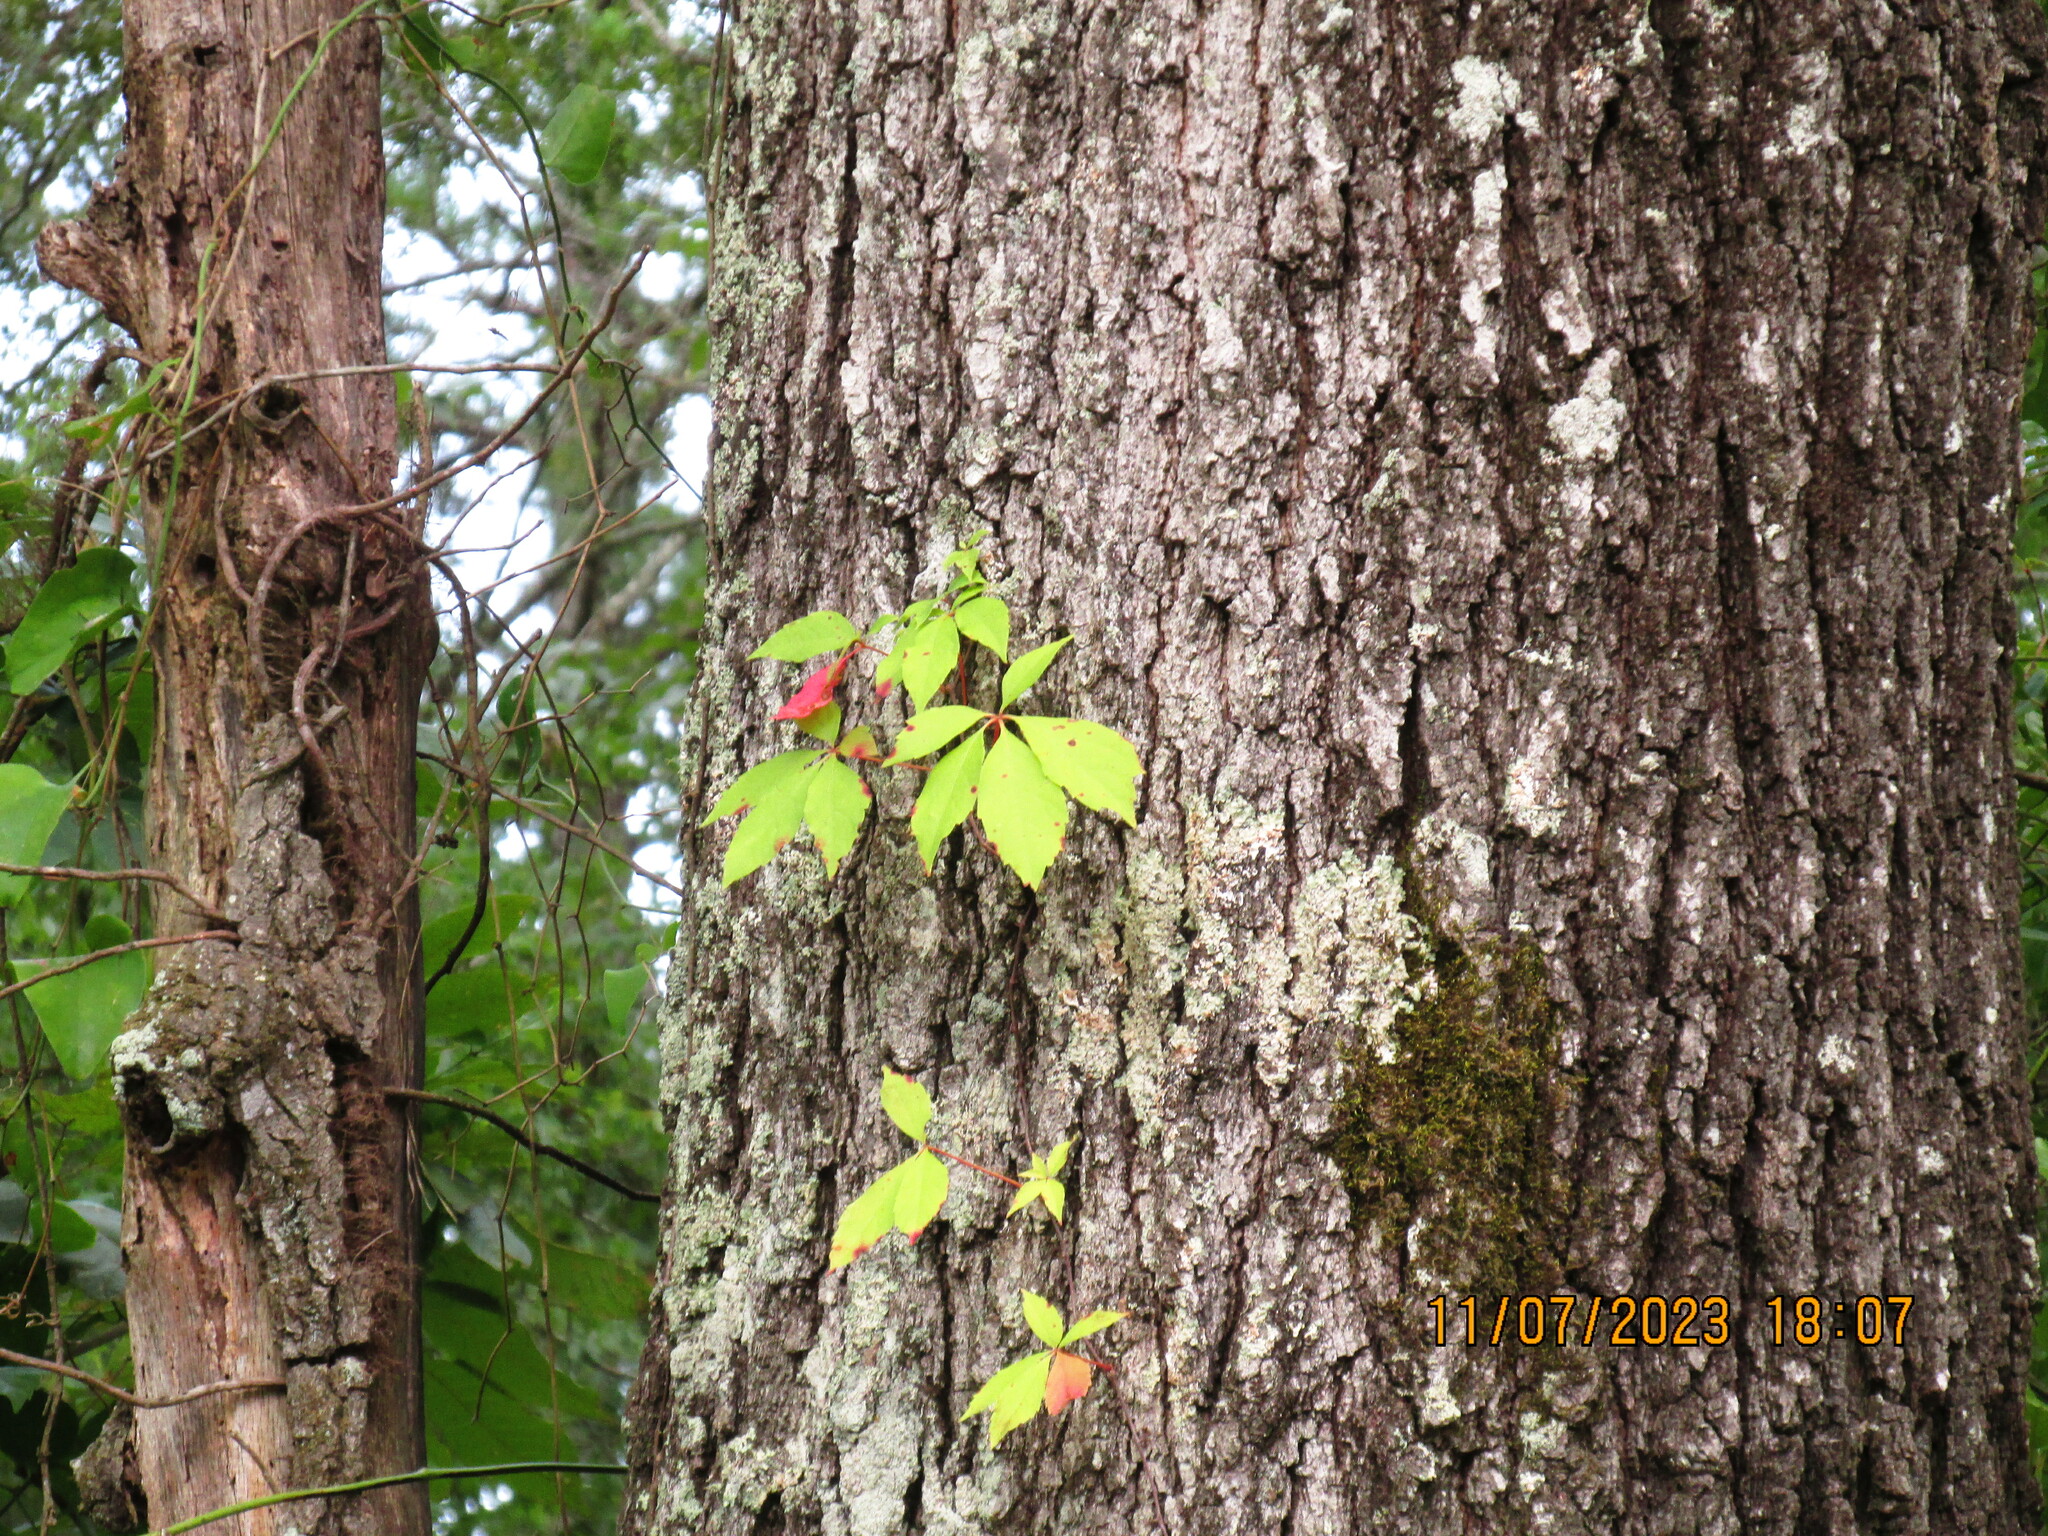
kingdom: Plantae
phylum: Tracheophyta
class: Magnoliopsida
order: Vitales
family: Vitaceae
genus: Parthenocissus
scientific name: Parthenocissus quinquefolia
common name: Virginia-creeper
